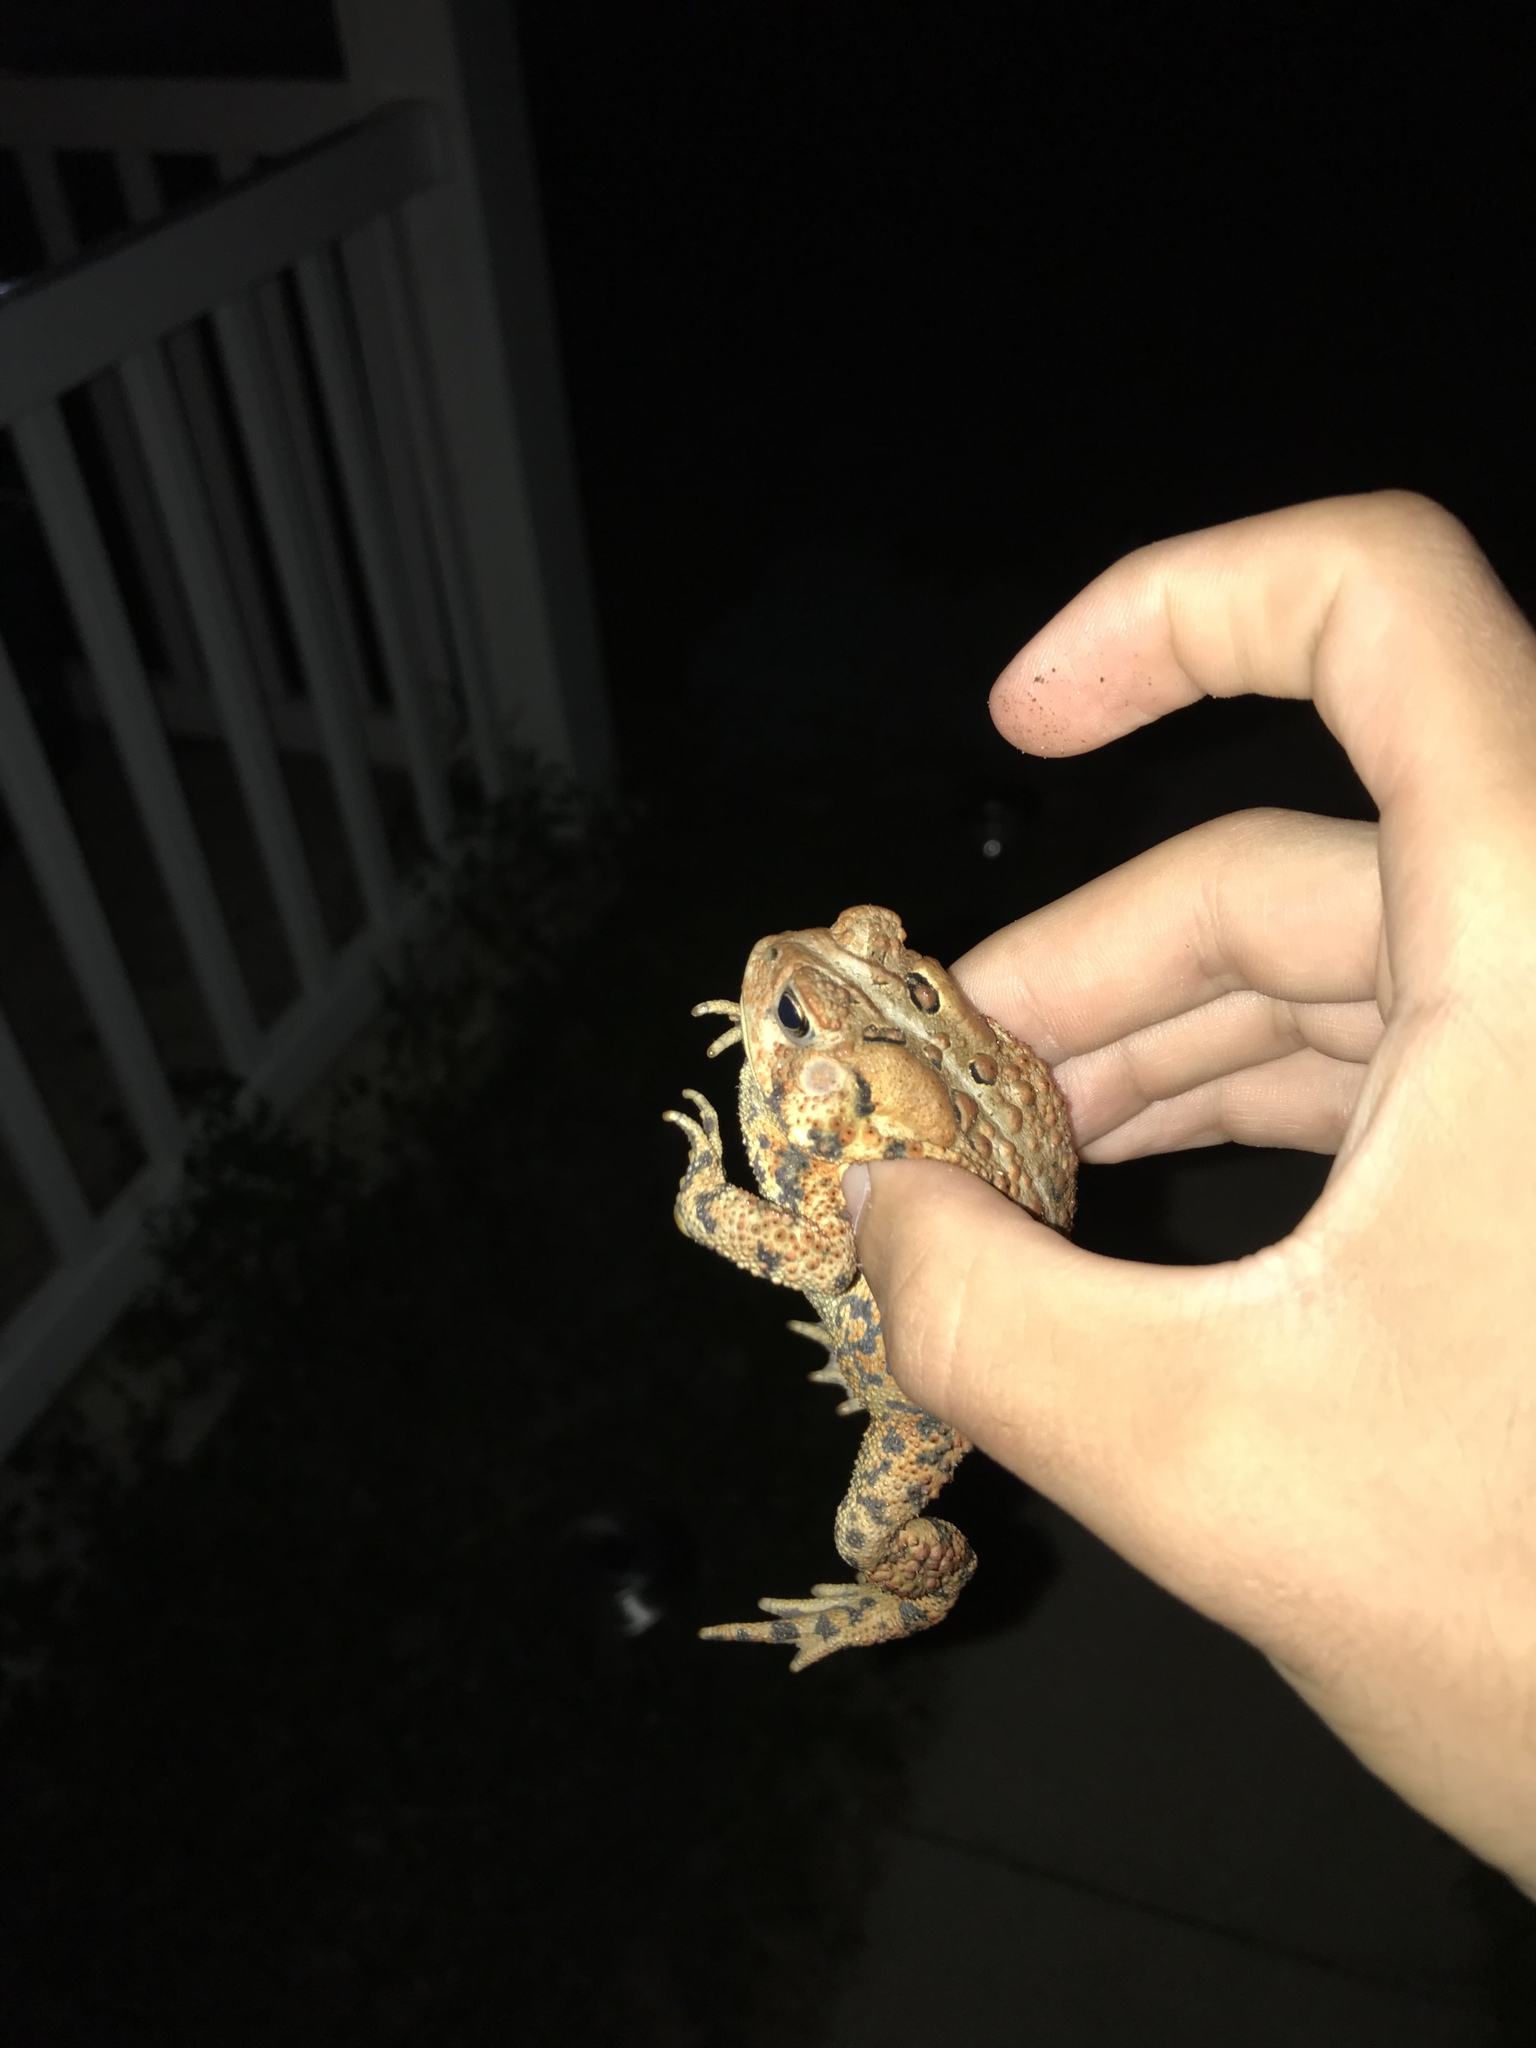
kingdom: Animalia
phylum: Chordata
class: Amphibia
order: Anura
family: Bufonidae
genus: Anaxyrus
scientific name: Anaxyrus americanus
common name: American toad
